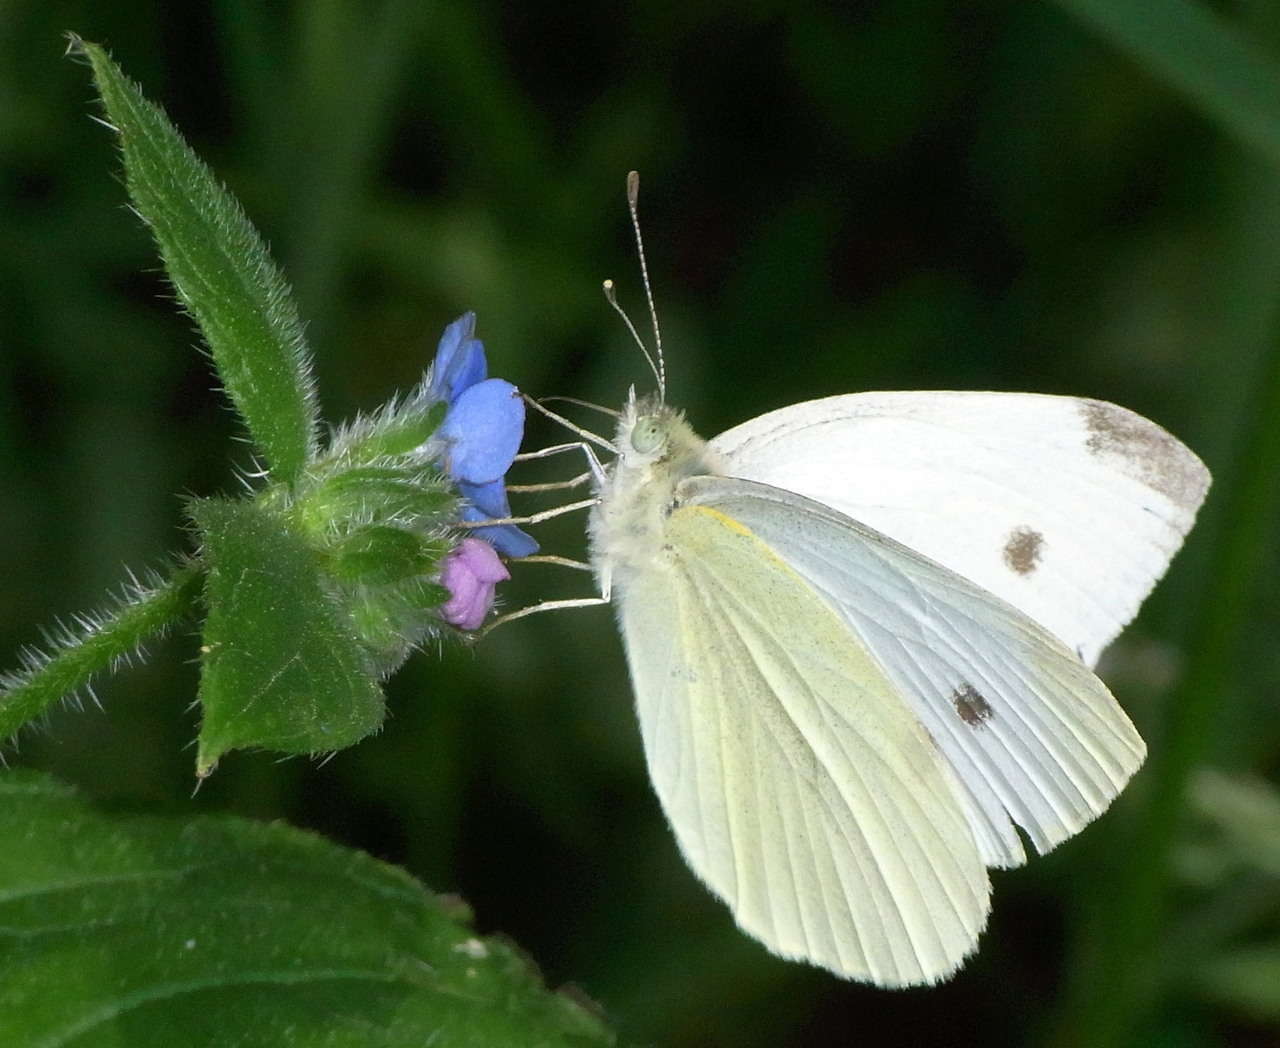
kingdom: Animalia
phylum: Arthropoda
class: Insecta
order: Lepidoptera
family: Pieridae
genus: Pieris
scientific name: Pieris rapae
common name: Small white
